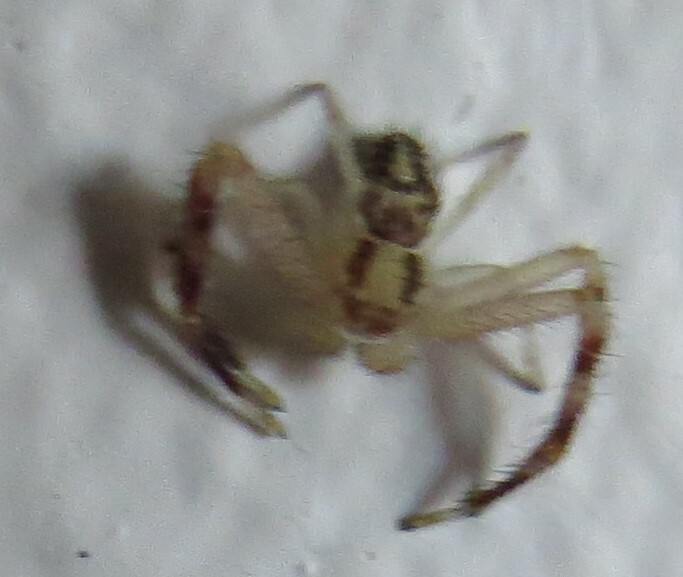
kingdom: Animalia
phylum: Arthropoda
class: Arachnida
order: Araneae
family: Thomisidae
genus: Mecaphesa
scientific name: Mecaphesa asperata
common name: Crab spiders
